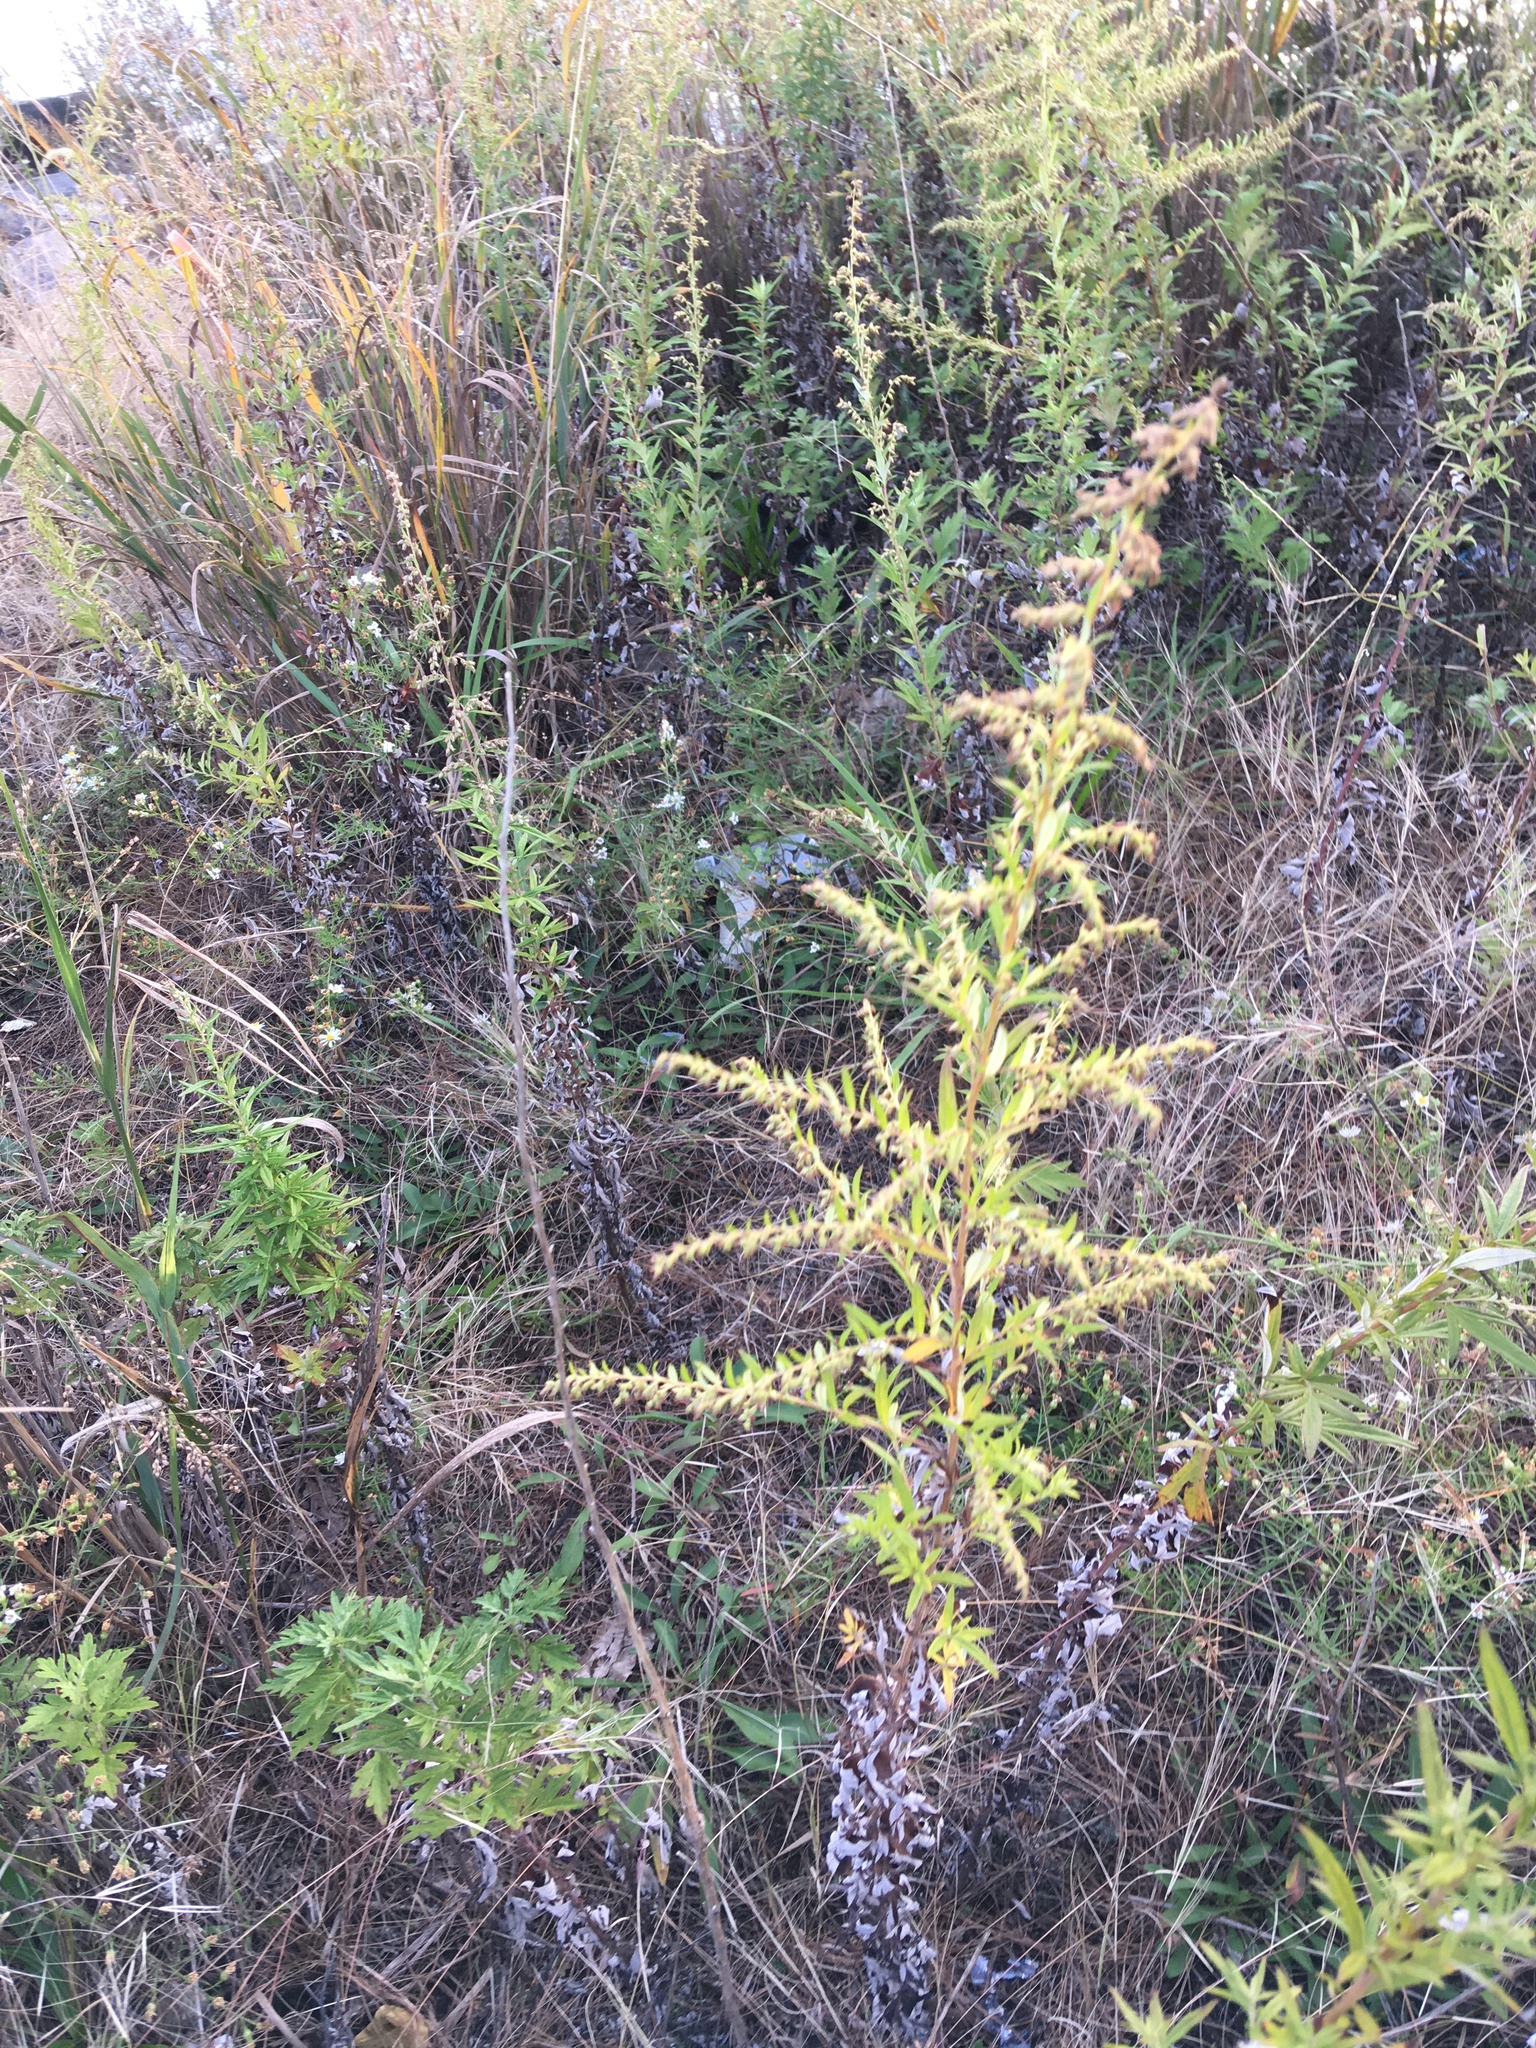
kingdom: Plantae
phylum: Tracheophyta
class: Magnoliopsida
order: Asterales
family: Asteraceae
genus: Artemisia
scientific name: Artemisia vulgaris
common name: Mugwort
